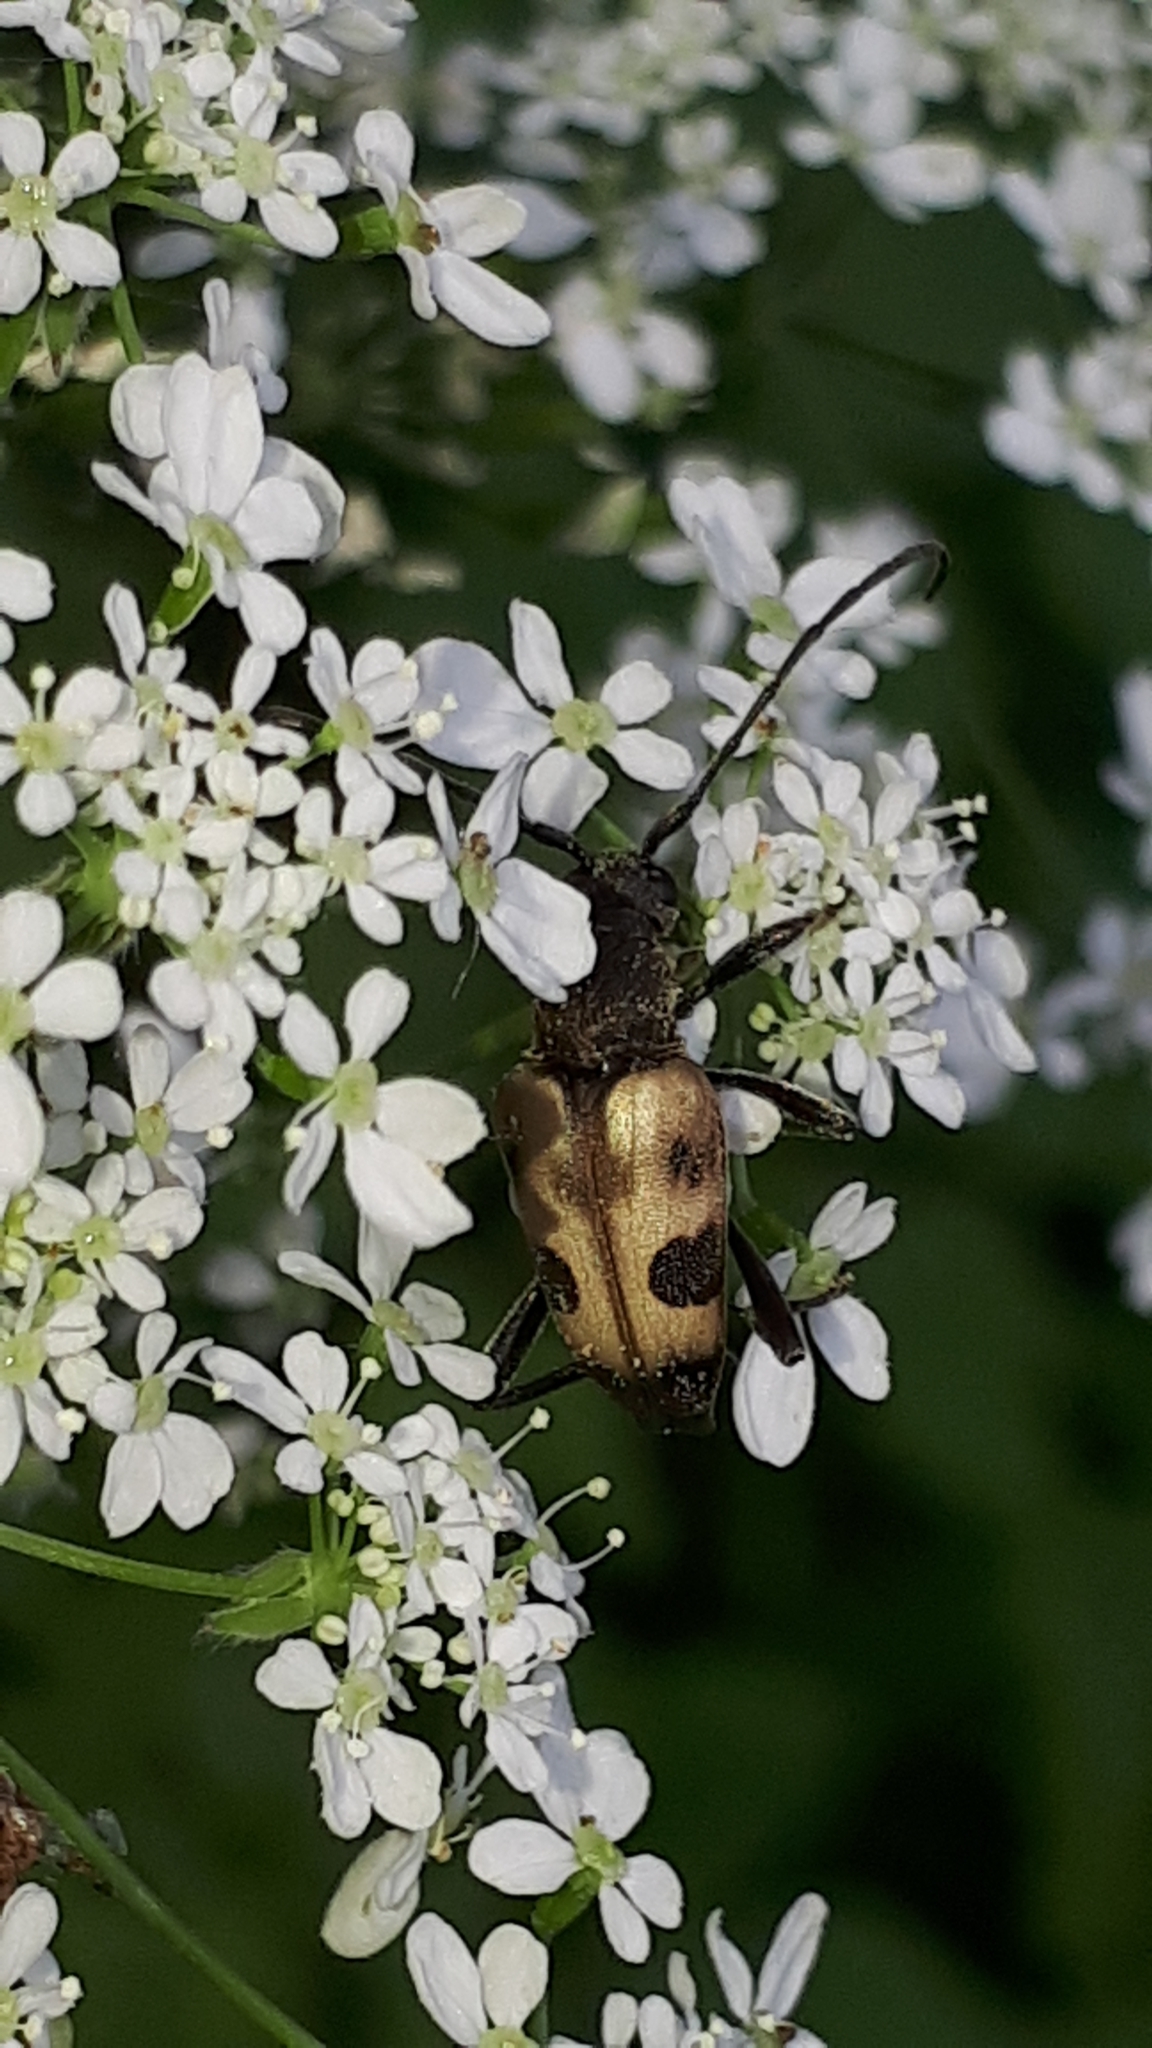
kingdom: Animalia
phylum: Arthropoda
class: Insecta
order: Coleoptera
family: Cerambycidae
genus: Pachytodes
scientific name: Pachytodes cerambyciformis
